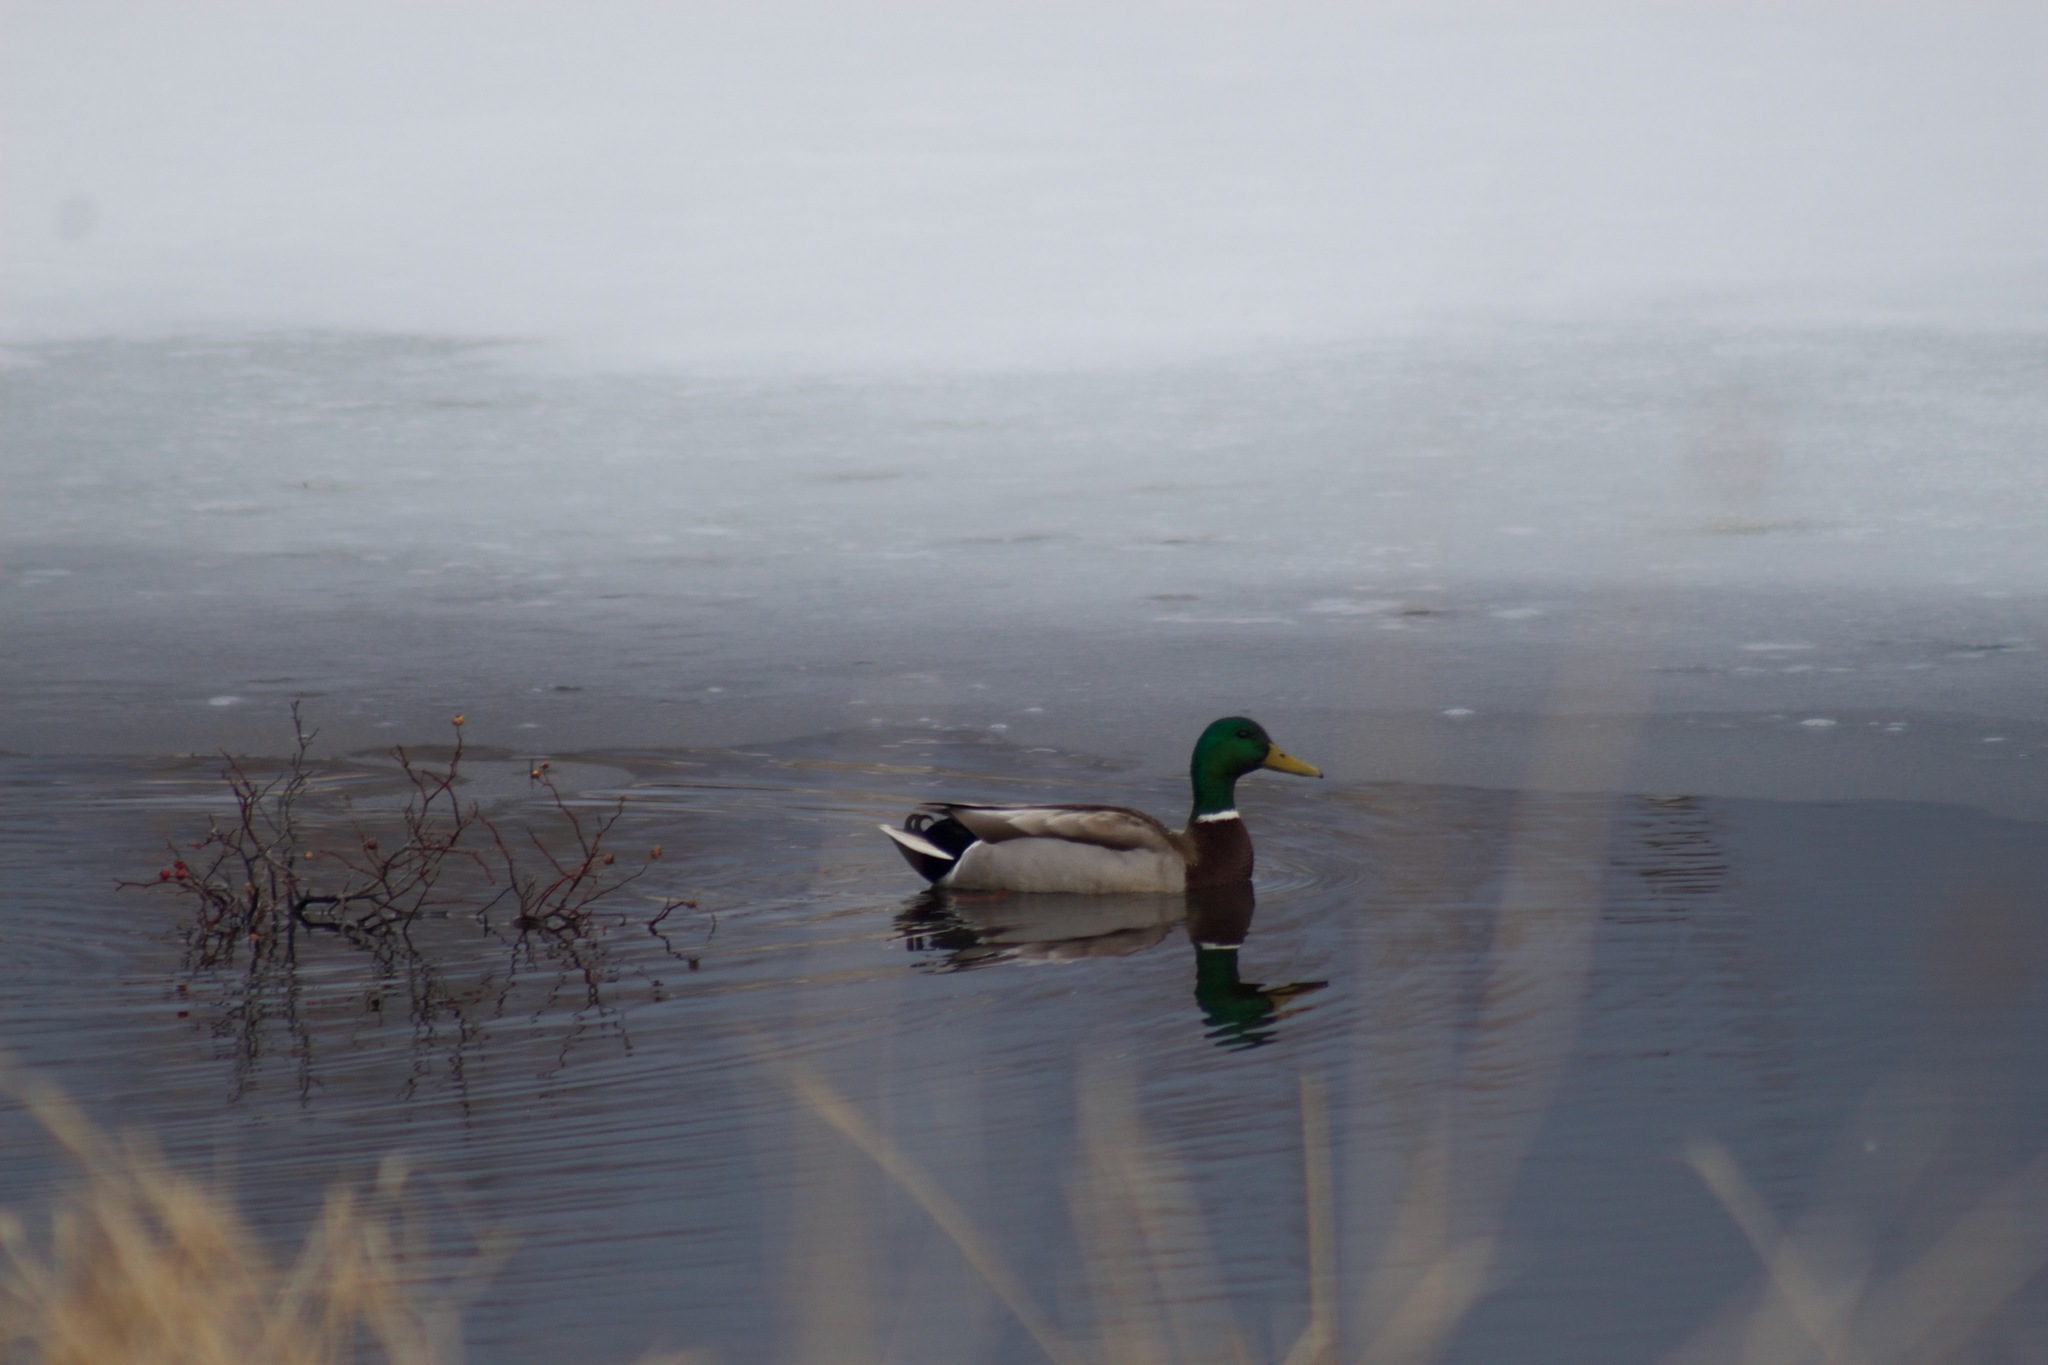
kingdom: Animalia
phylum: Chordata
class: Aves
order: Anseriformes
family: Anatidae
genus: Anas
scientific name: Anas platyrhynchos
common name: Mallard
